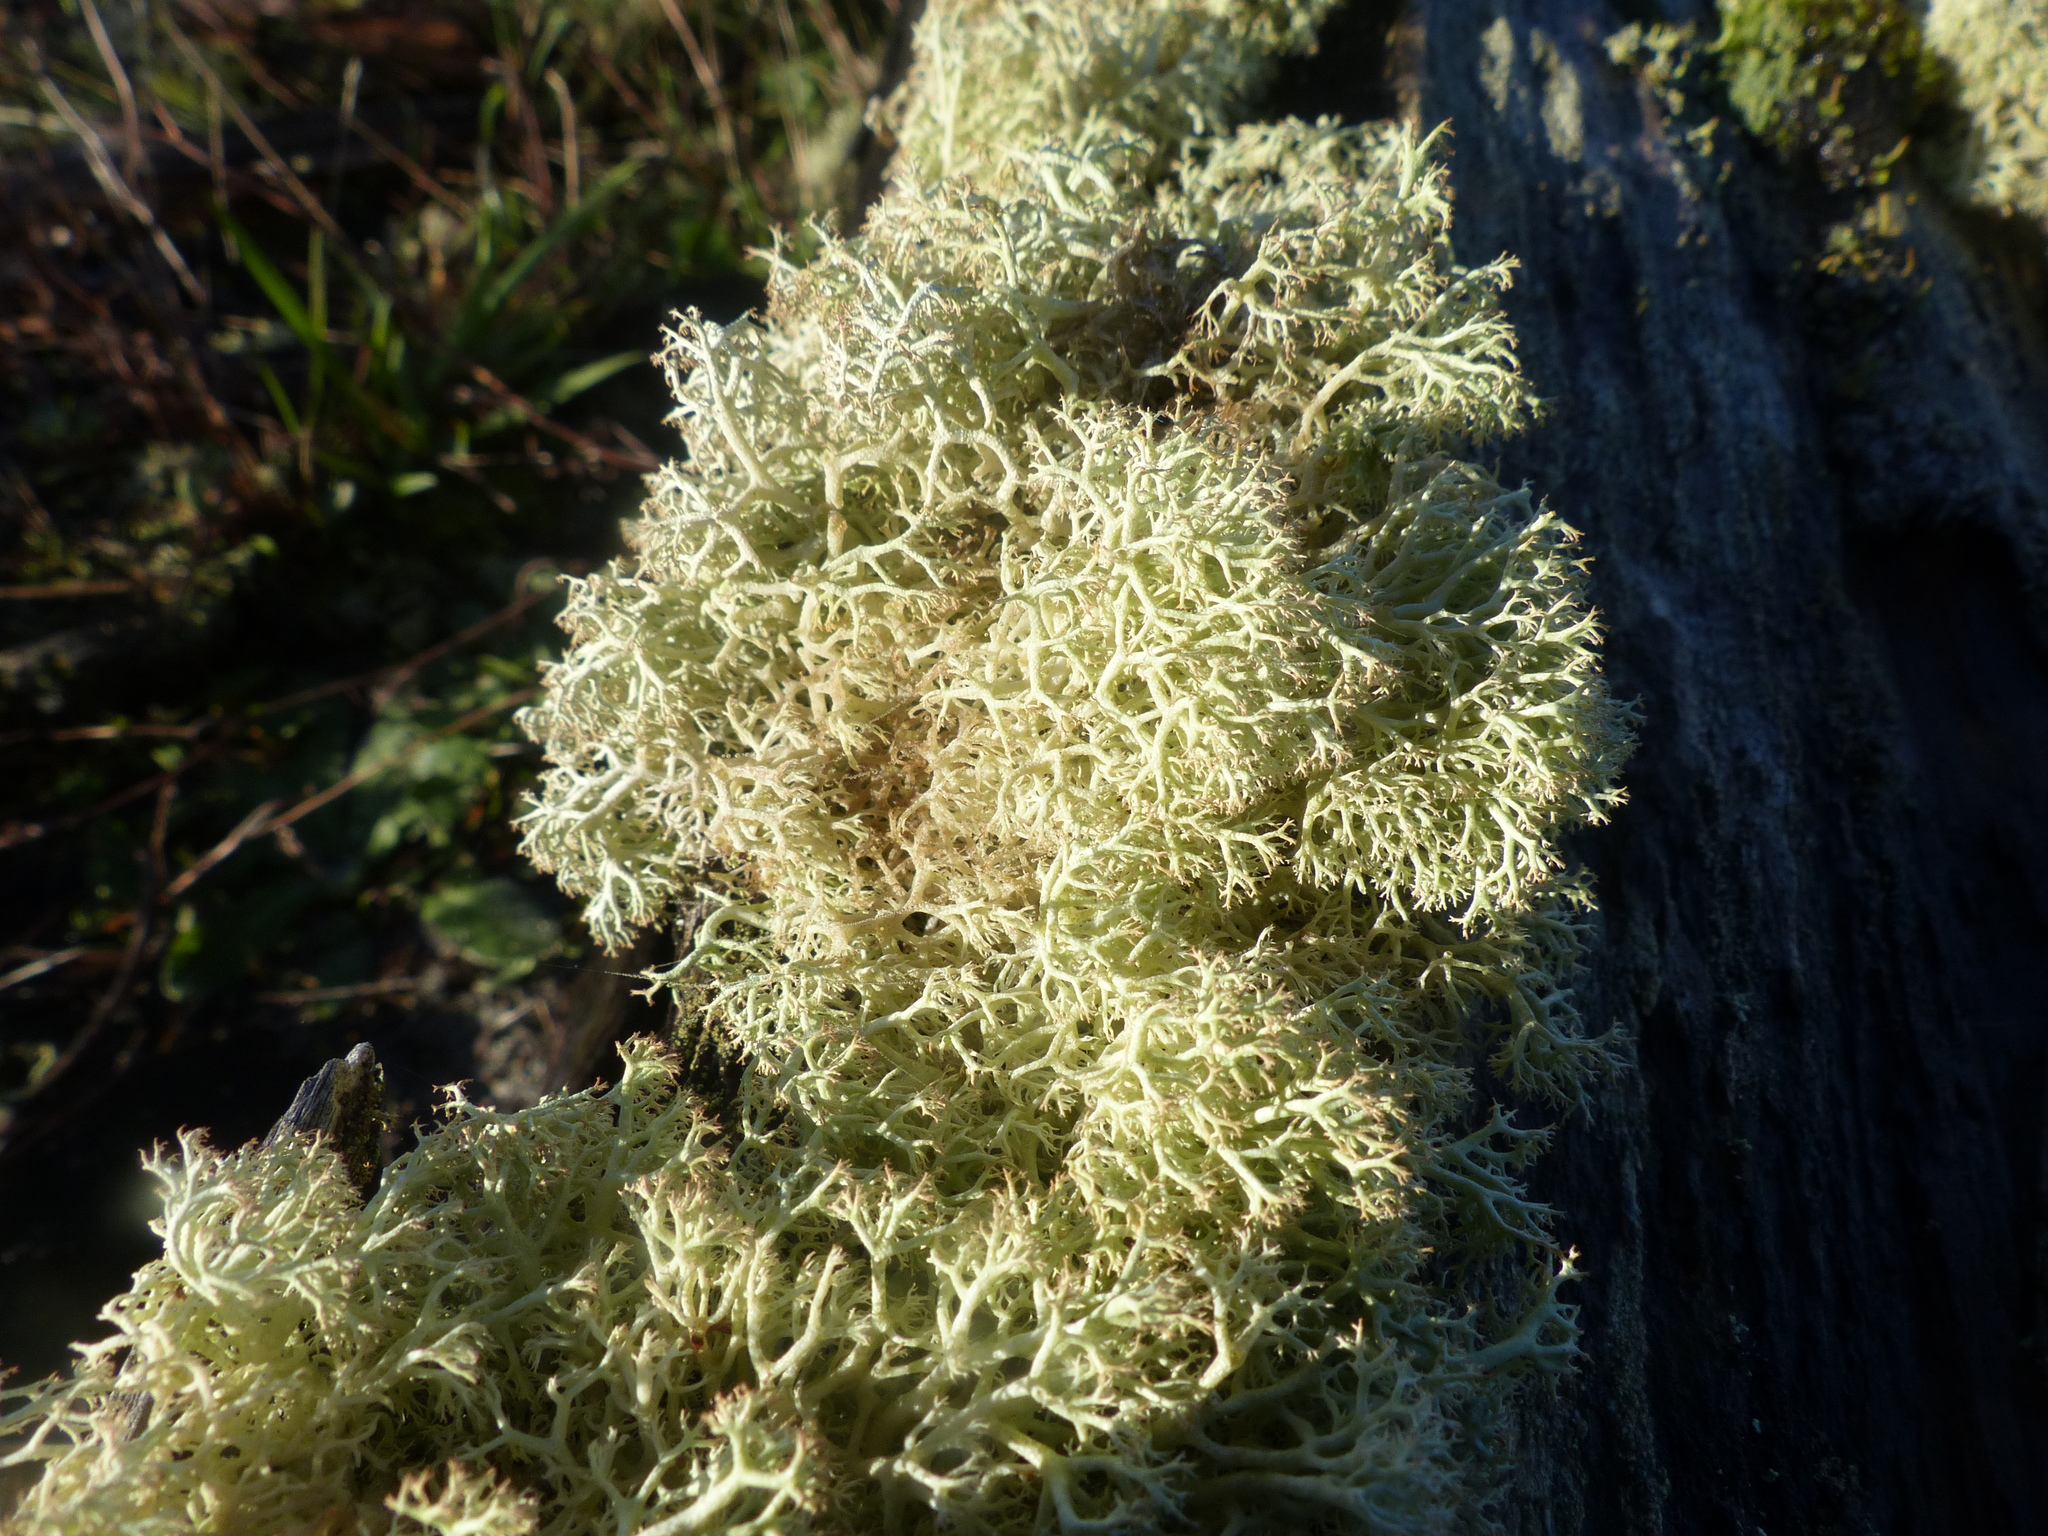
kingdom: Fungi
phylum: Ascomycota
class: Lecanoromycetes
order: Lecanorales
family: Cladoniaceae
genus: Cladonia
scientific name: Cladonia portentosa
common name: Reindeer lichen
